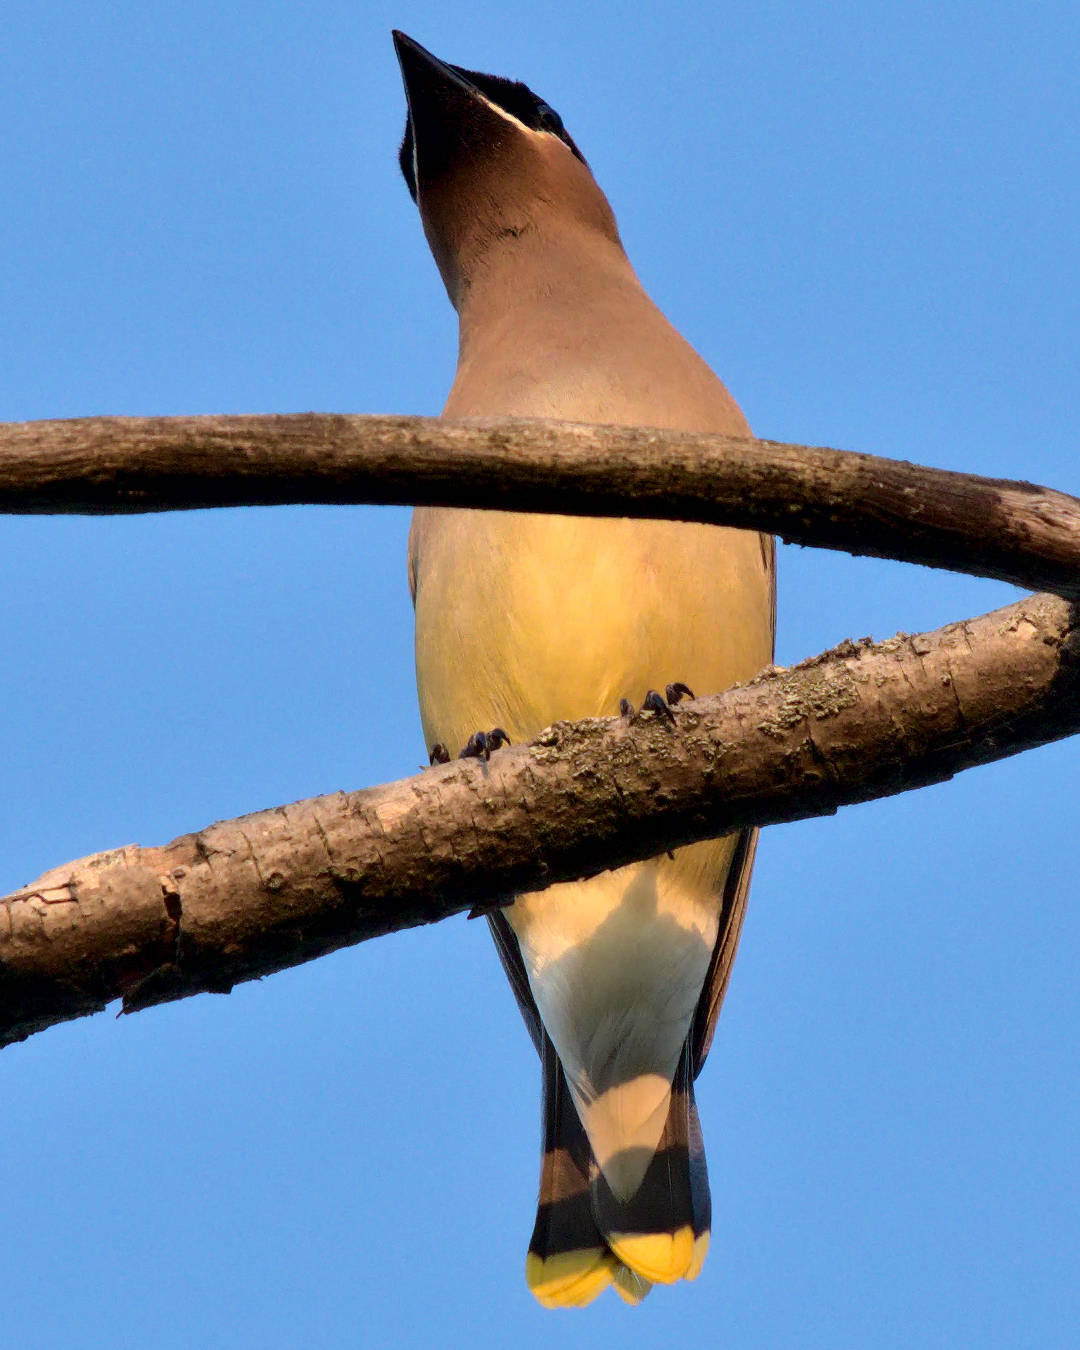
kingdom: Animalia
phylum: Chordata
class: Aves
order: Passeriformes
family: Bombycillidae
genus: Bombycilla
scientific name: Bombycilla cedrorum
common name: Cedar waxwing
